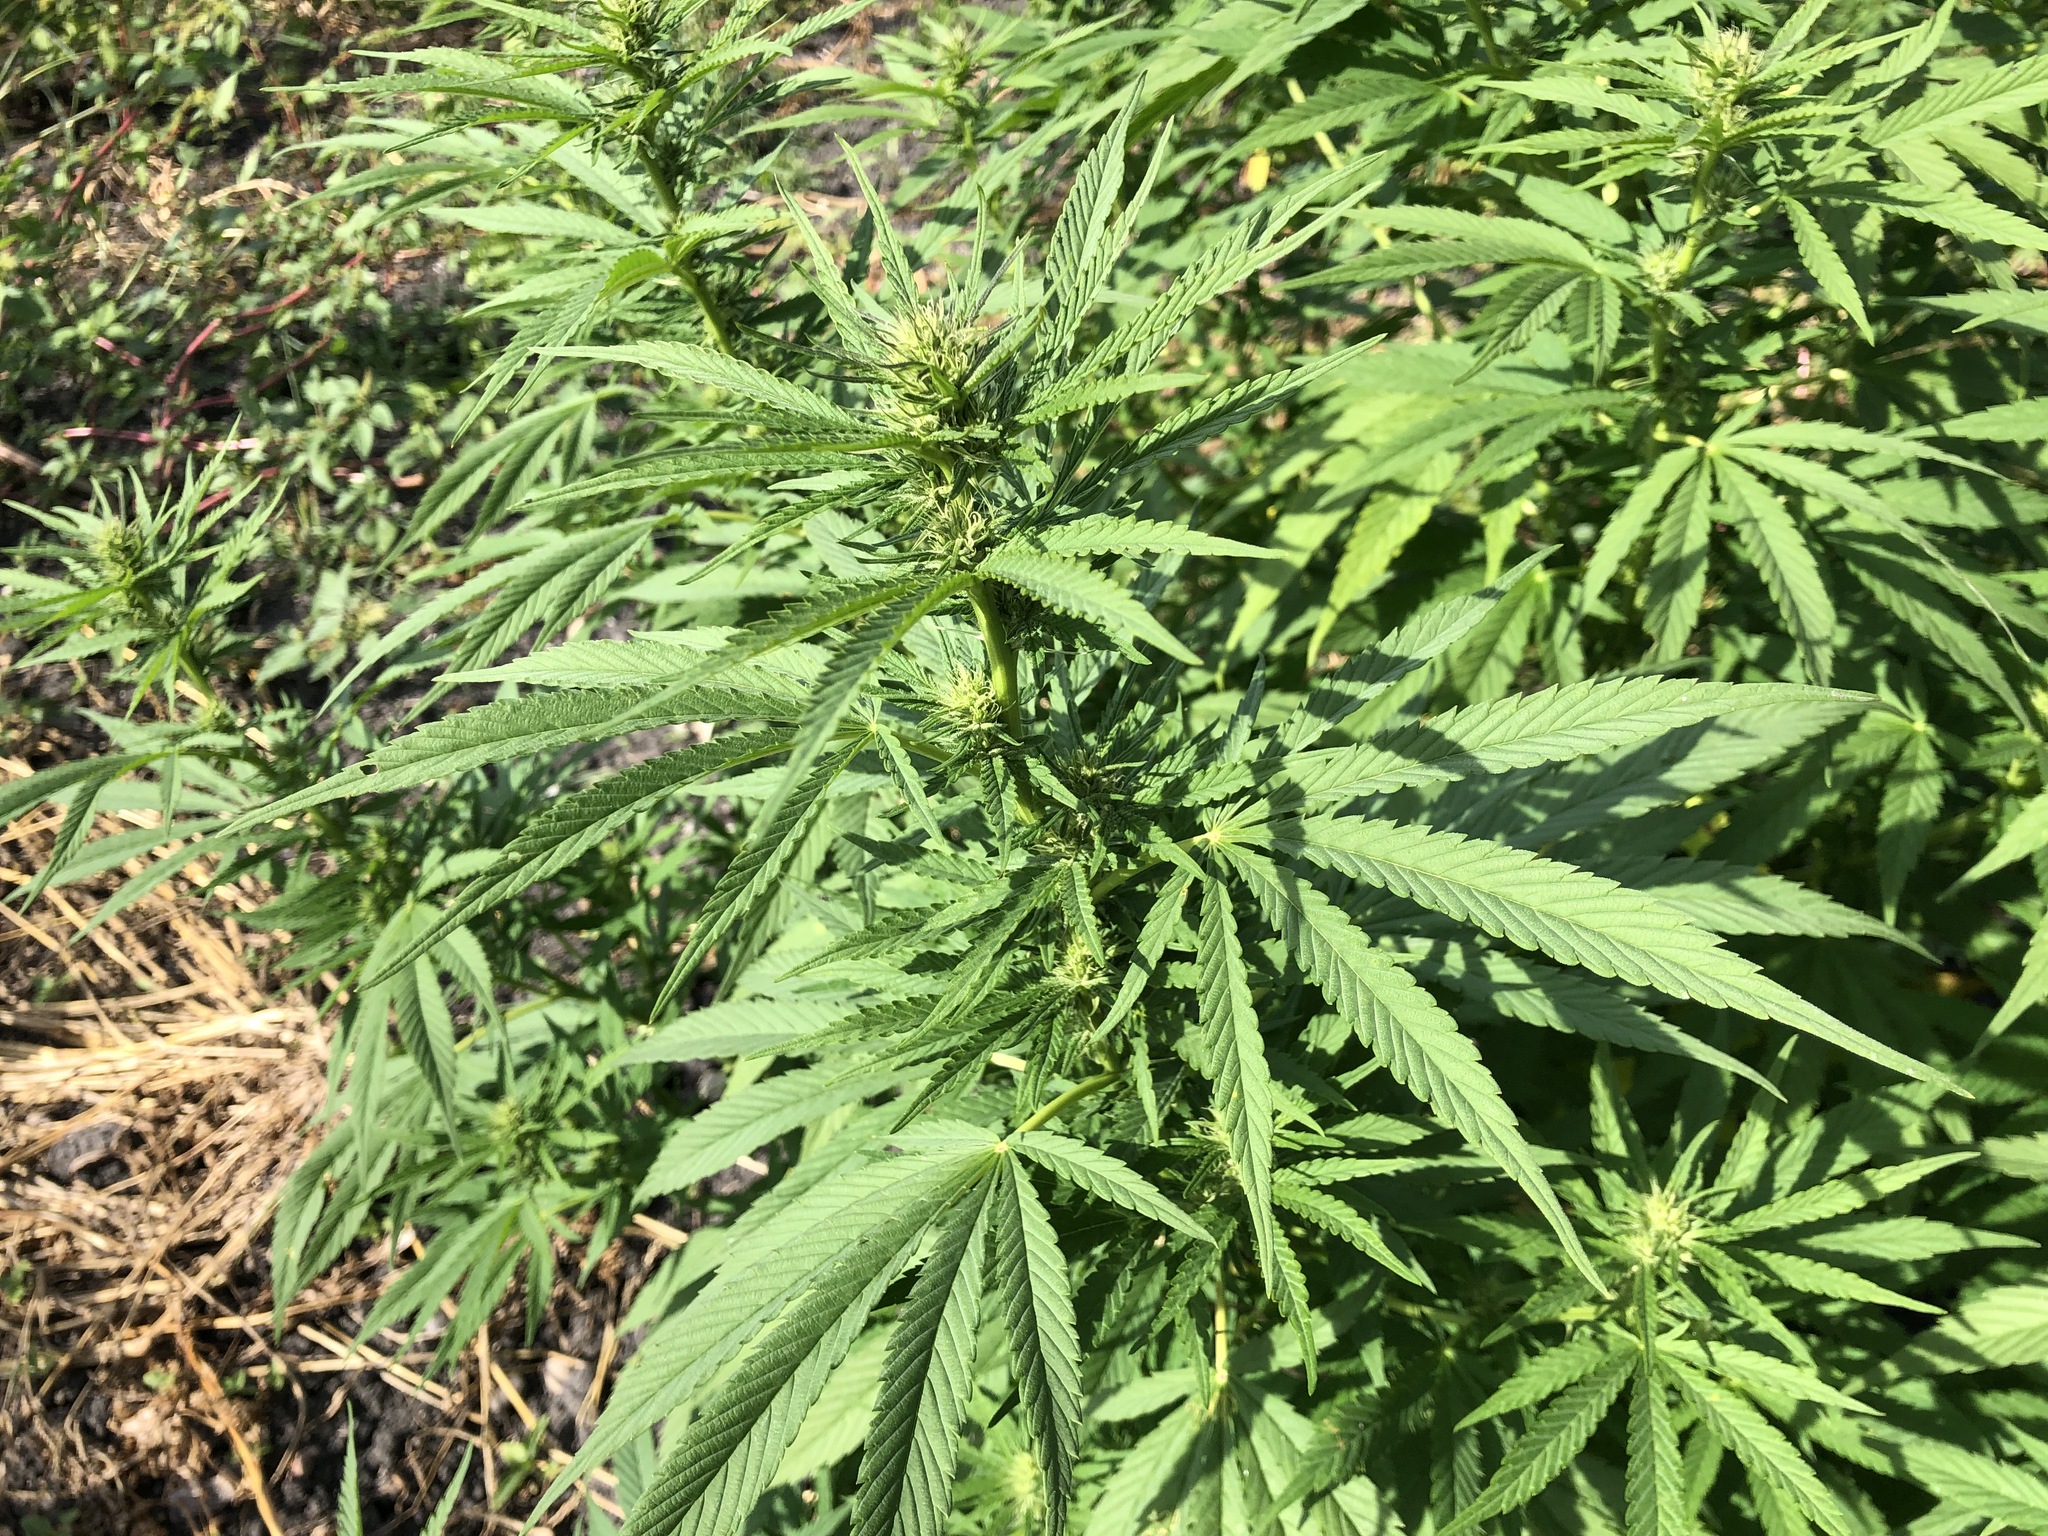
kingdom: Plantae
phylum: Tracheophyta
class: Magnoliopsida
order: Rosales
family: Cannabaceae
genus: Cannabis
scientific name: Cannabis sativa
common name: Hemp
